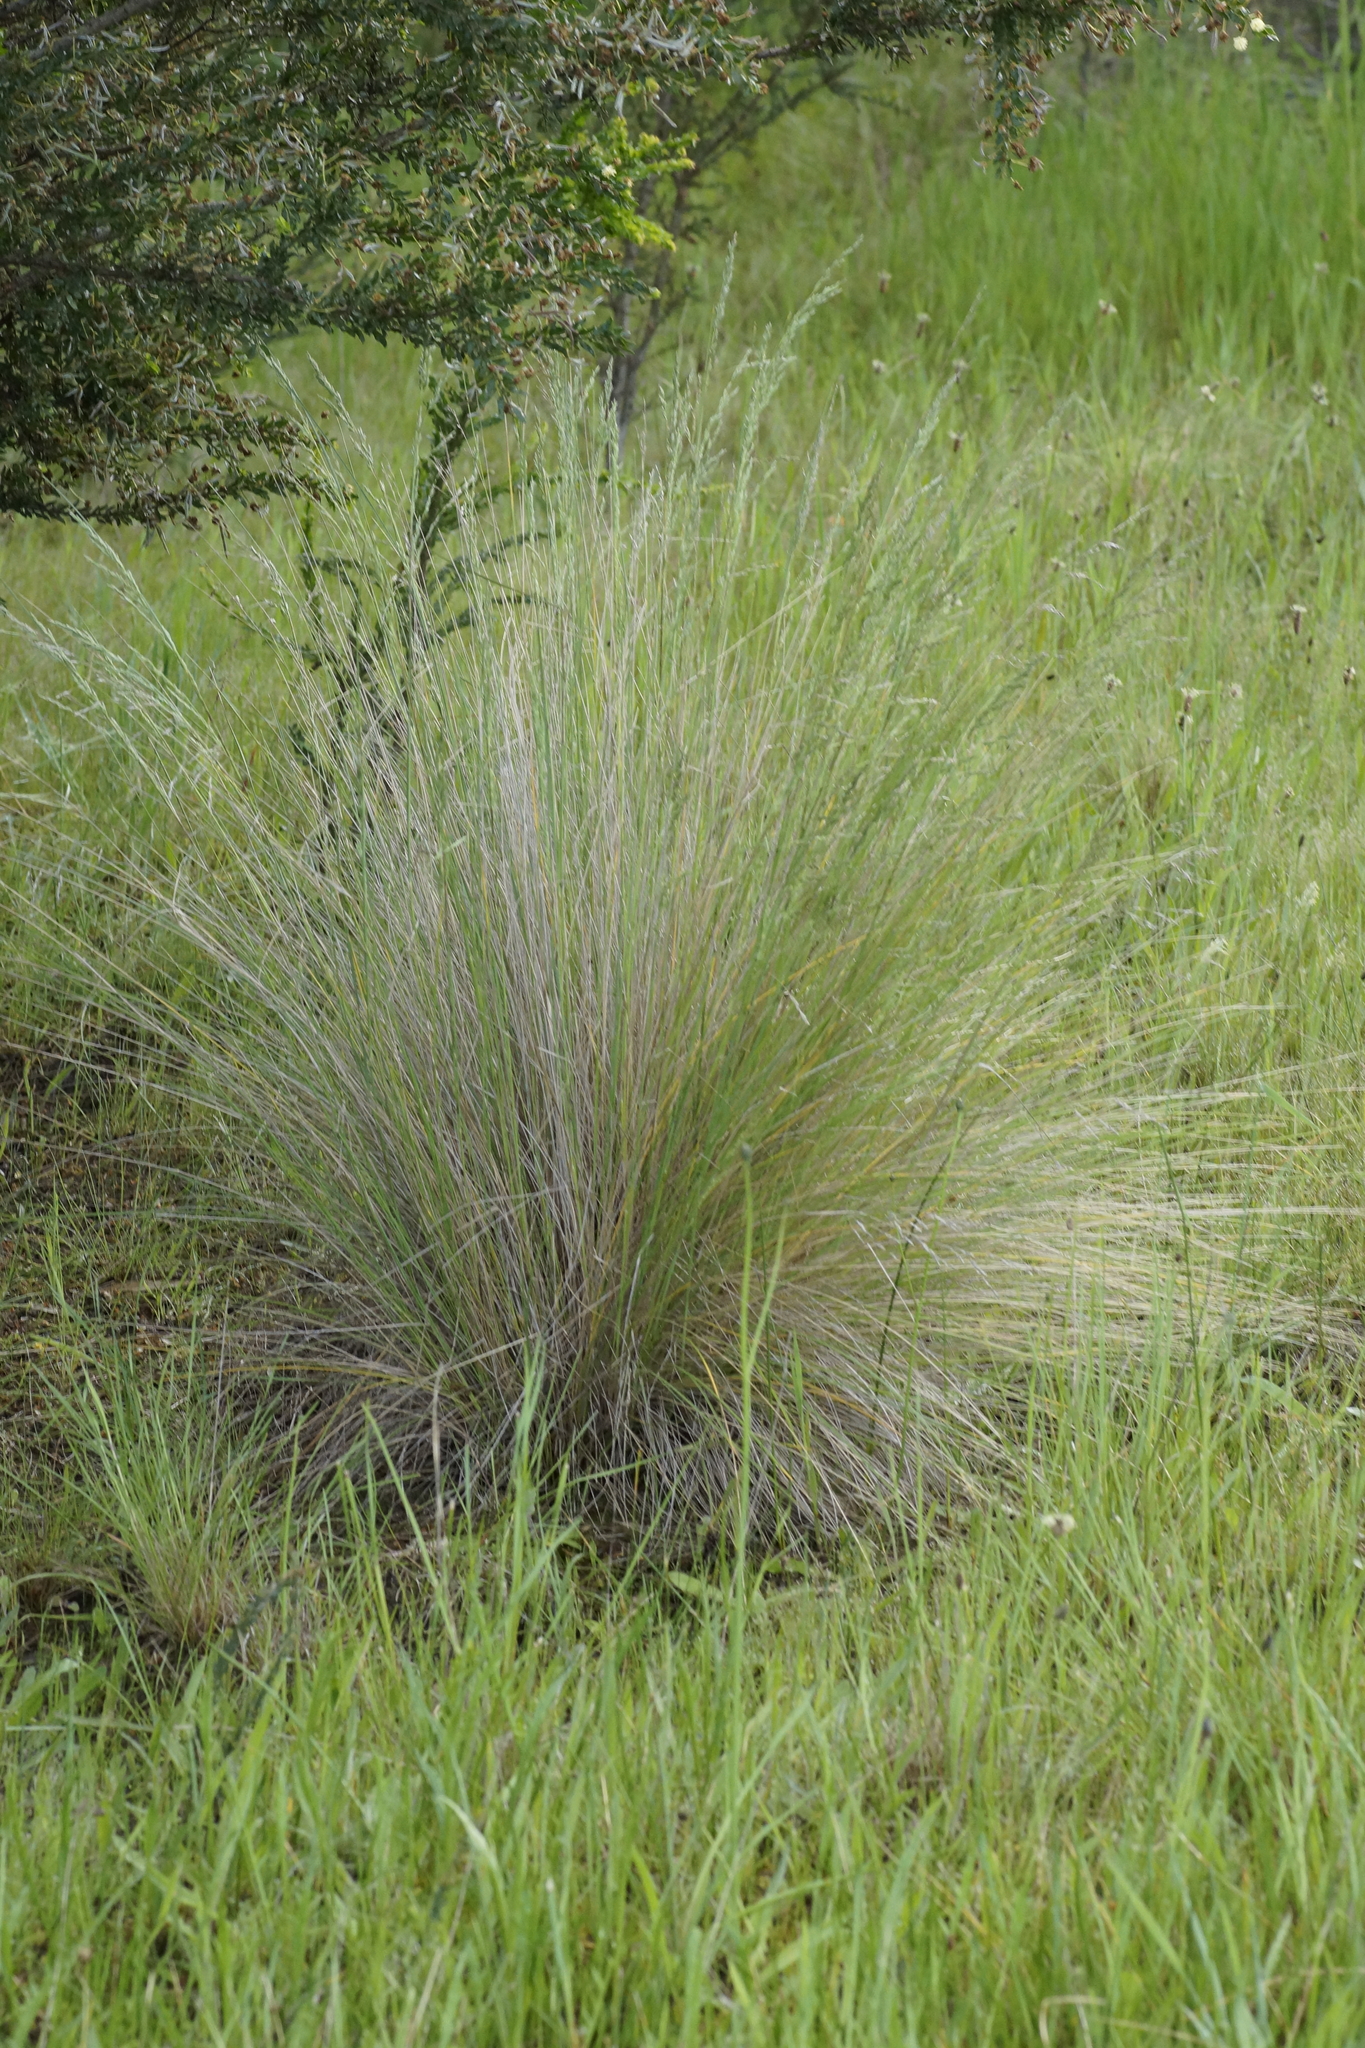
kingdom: Plantae
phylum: Tracheophyta
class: Liliopsida
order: Poales
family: Poaceae
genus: Poa
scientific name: Poa labillardierei
